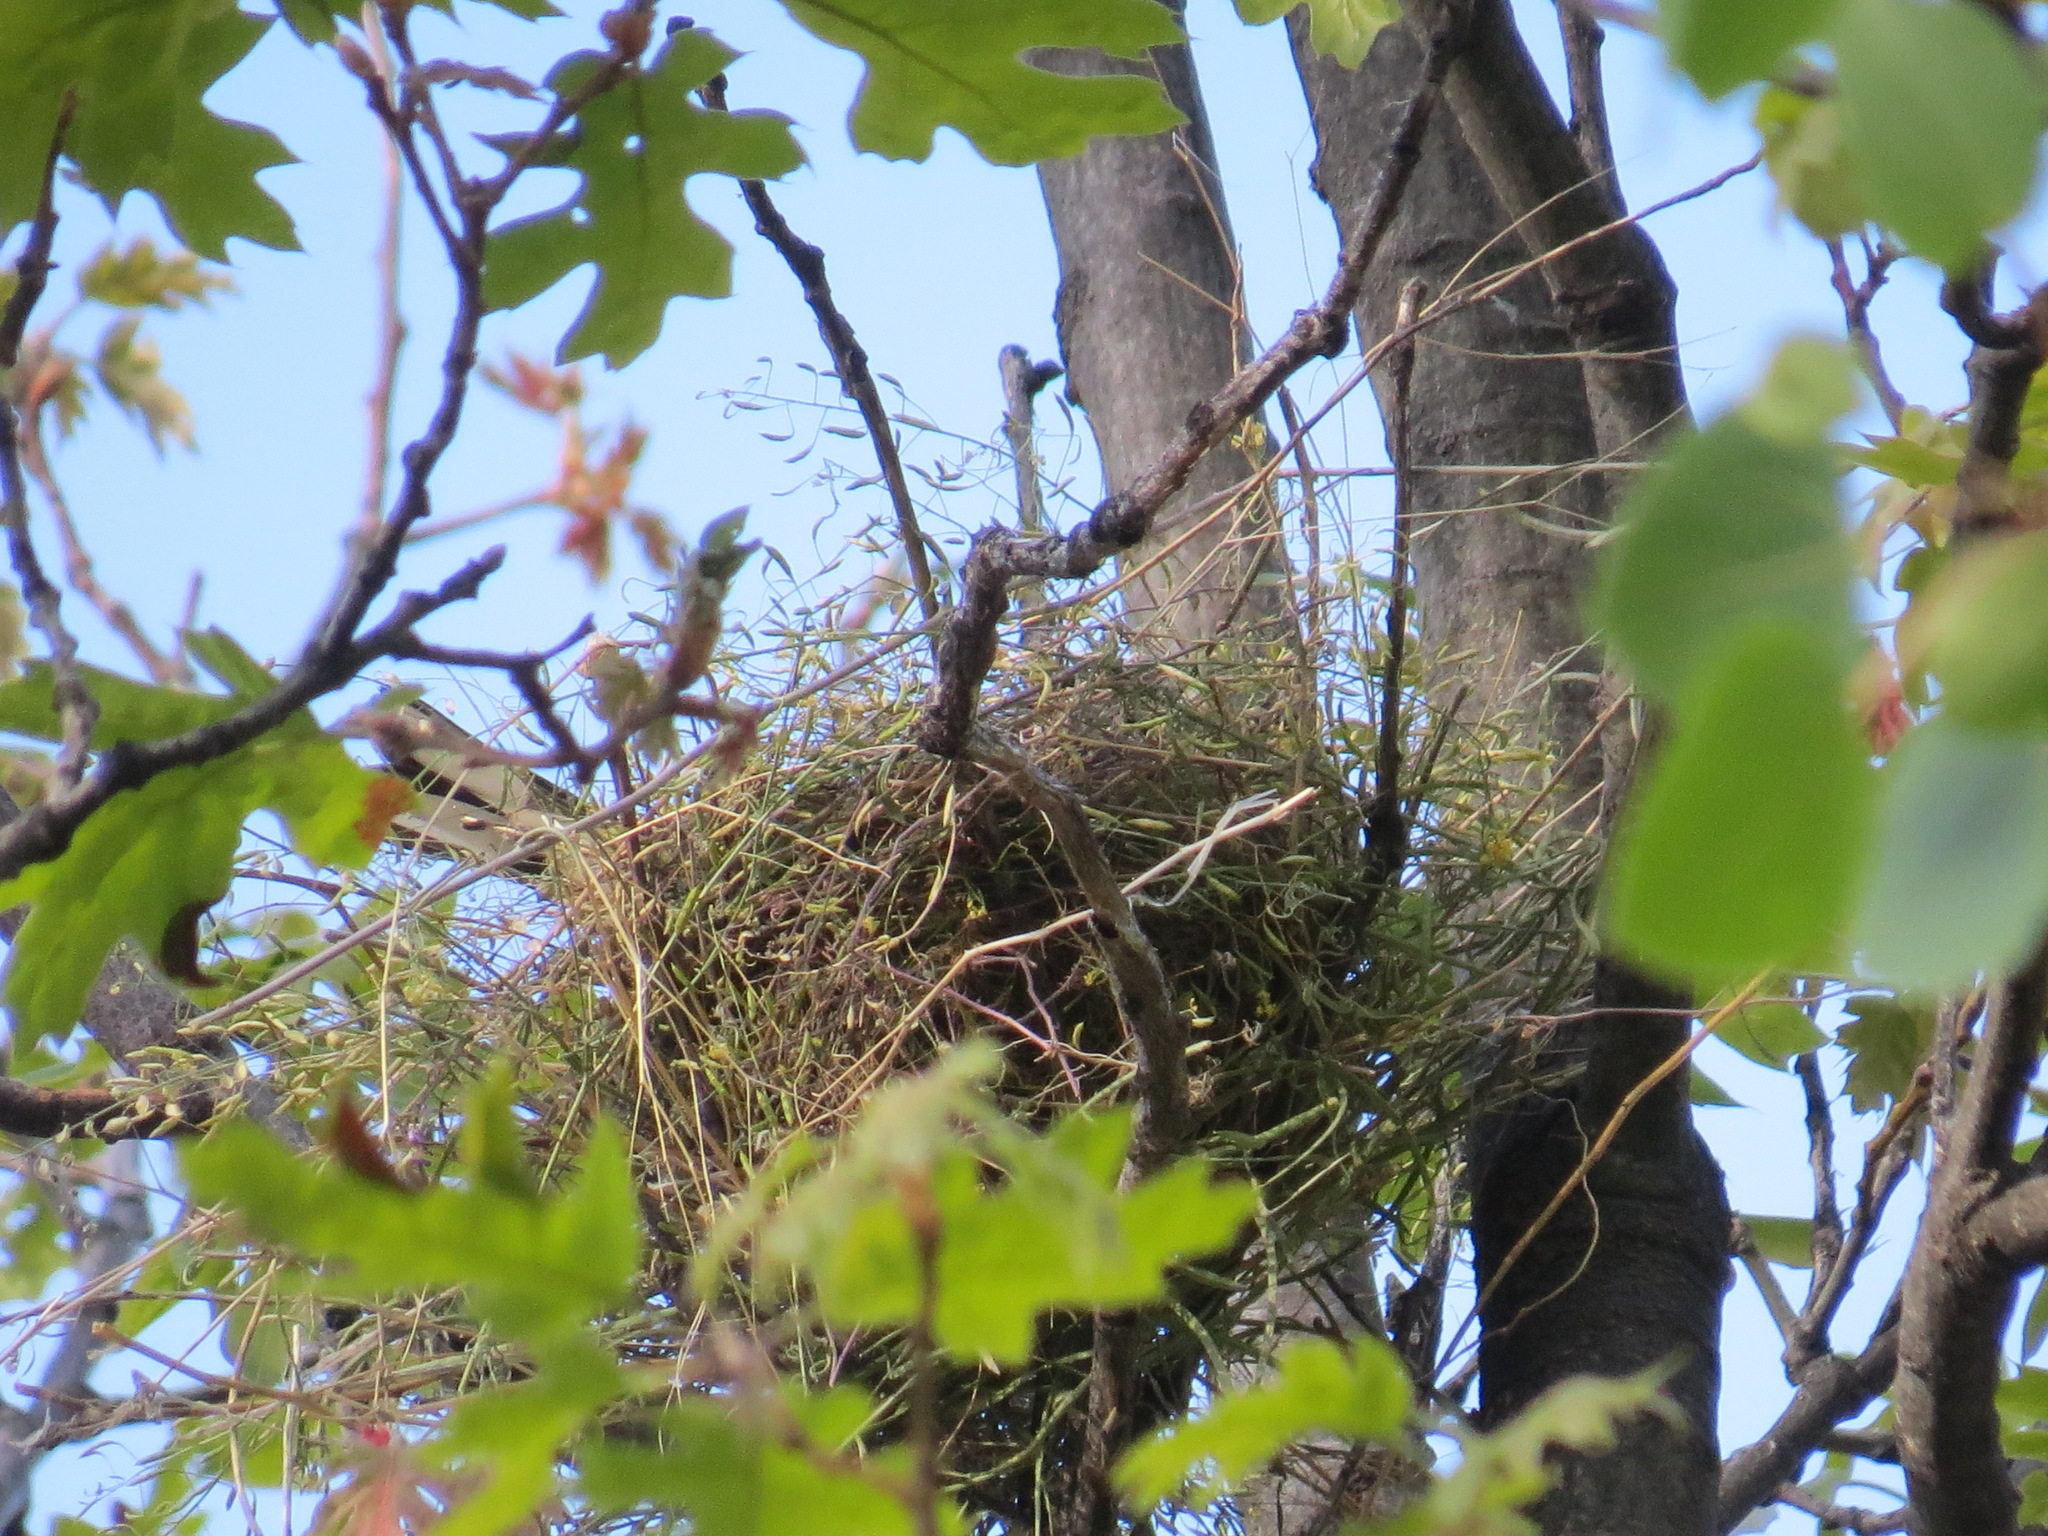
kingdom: Animalia
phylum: Chordata
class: Aves
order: Passeriformes
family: Cardinalidae
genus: Pheucticus
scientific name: Pheucticus melanocephalus
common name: Black-headed grosbeak
